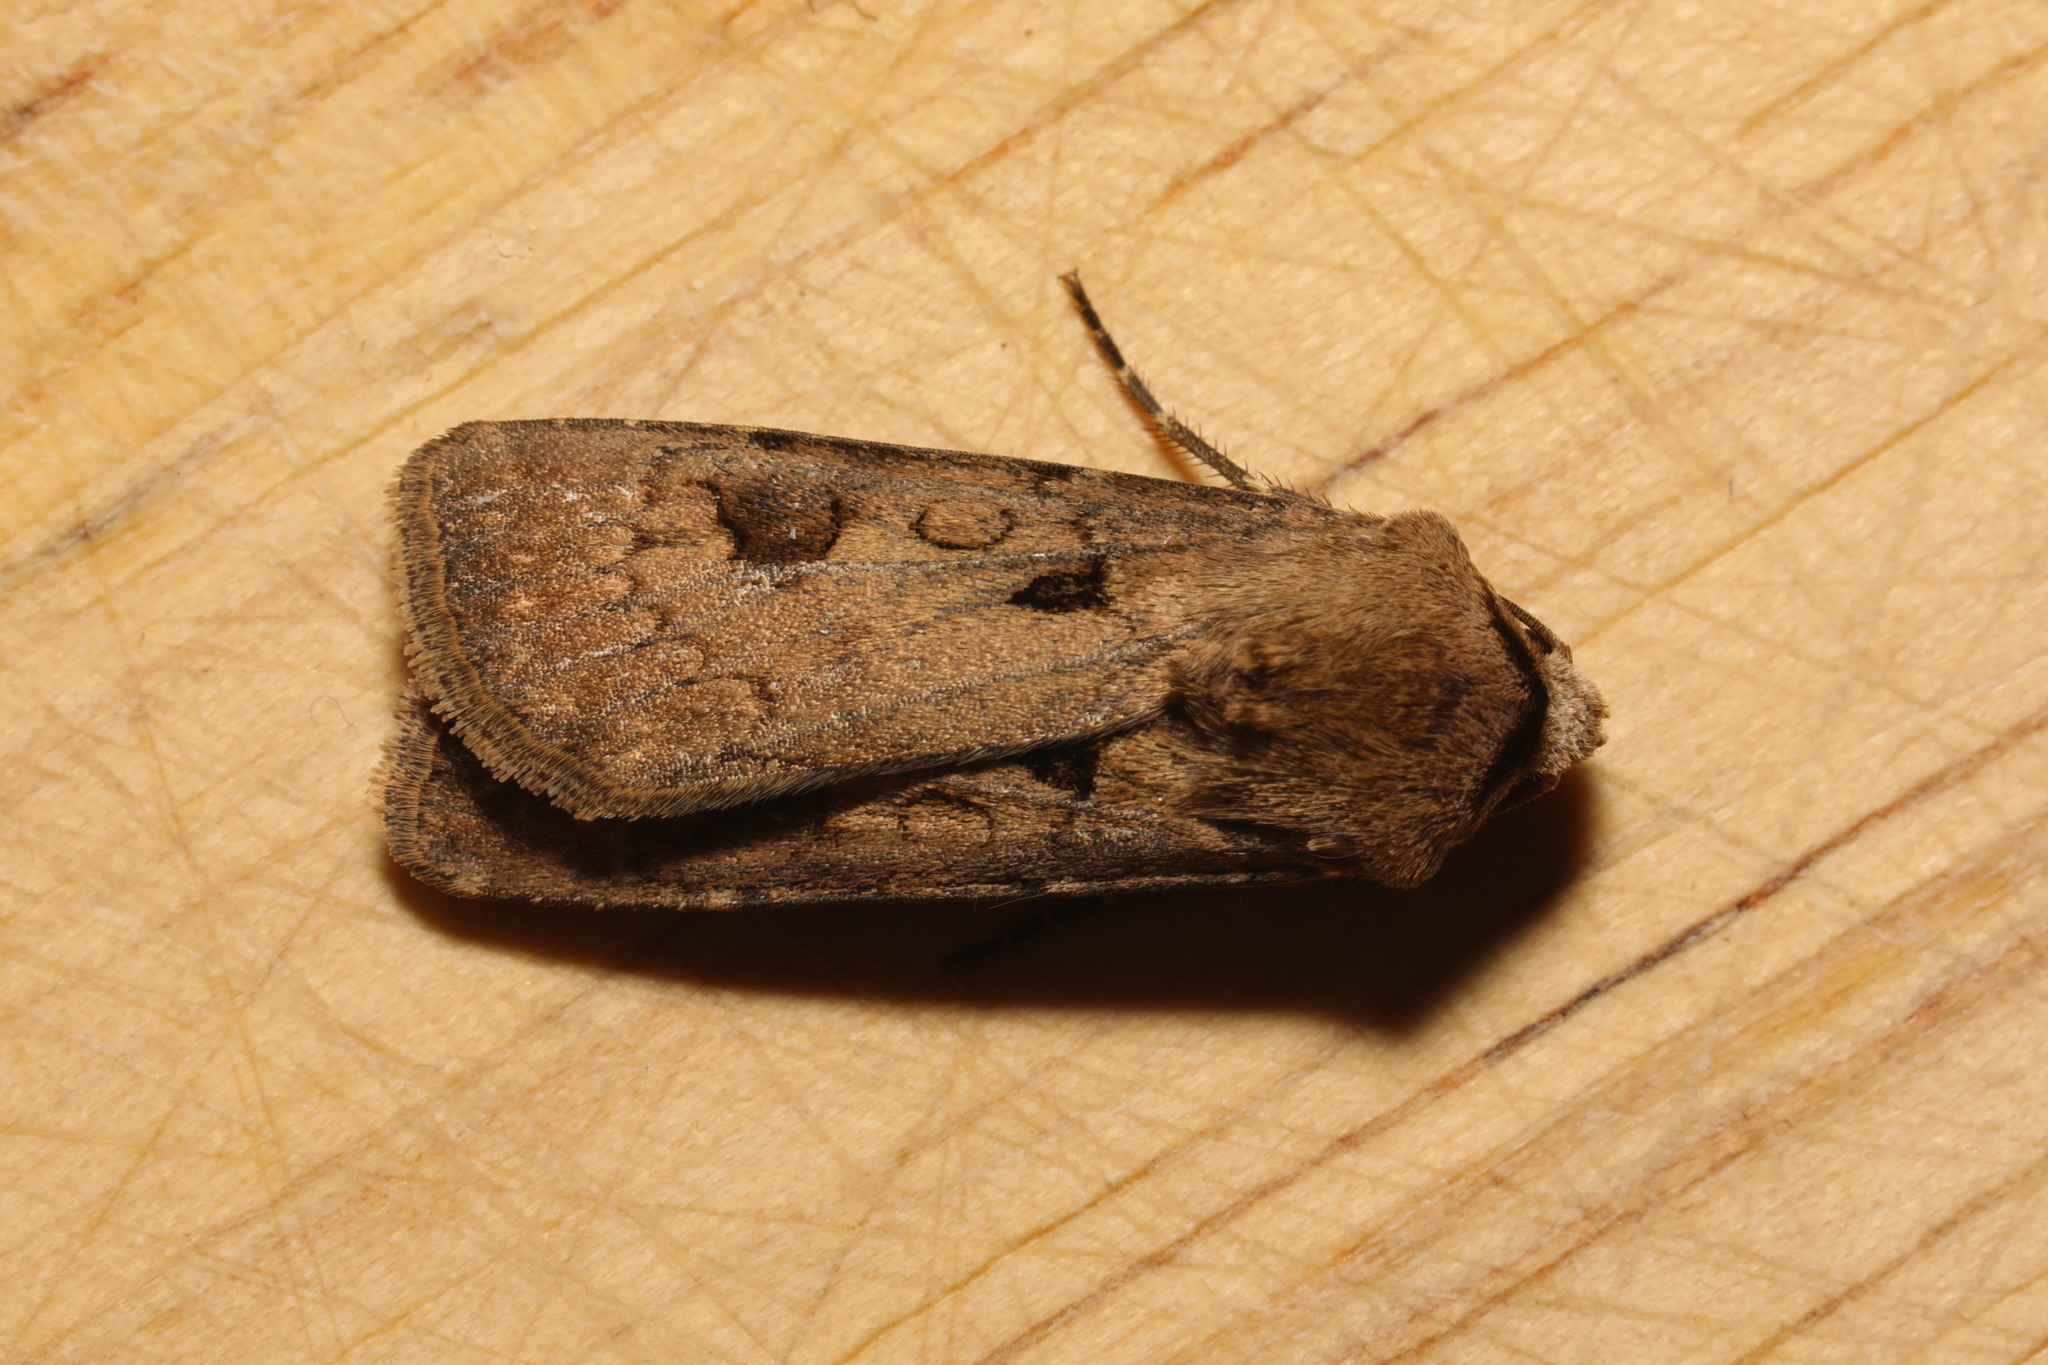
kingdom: Animalia
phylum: Arthropoda
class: Insecta
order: Lepidoptera
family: Noctuidae
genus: Agrotis
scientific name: Agrotis exclamationis
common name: Heart and dart
